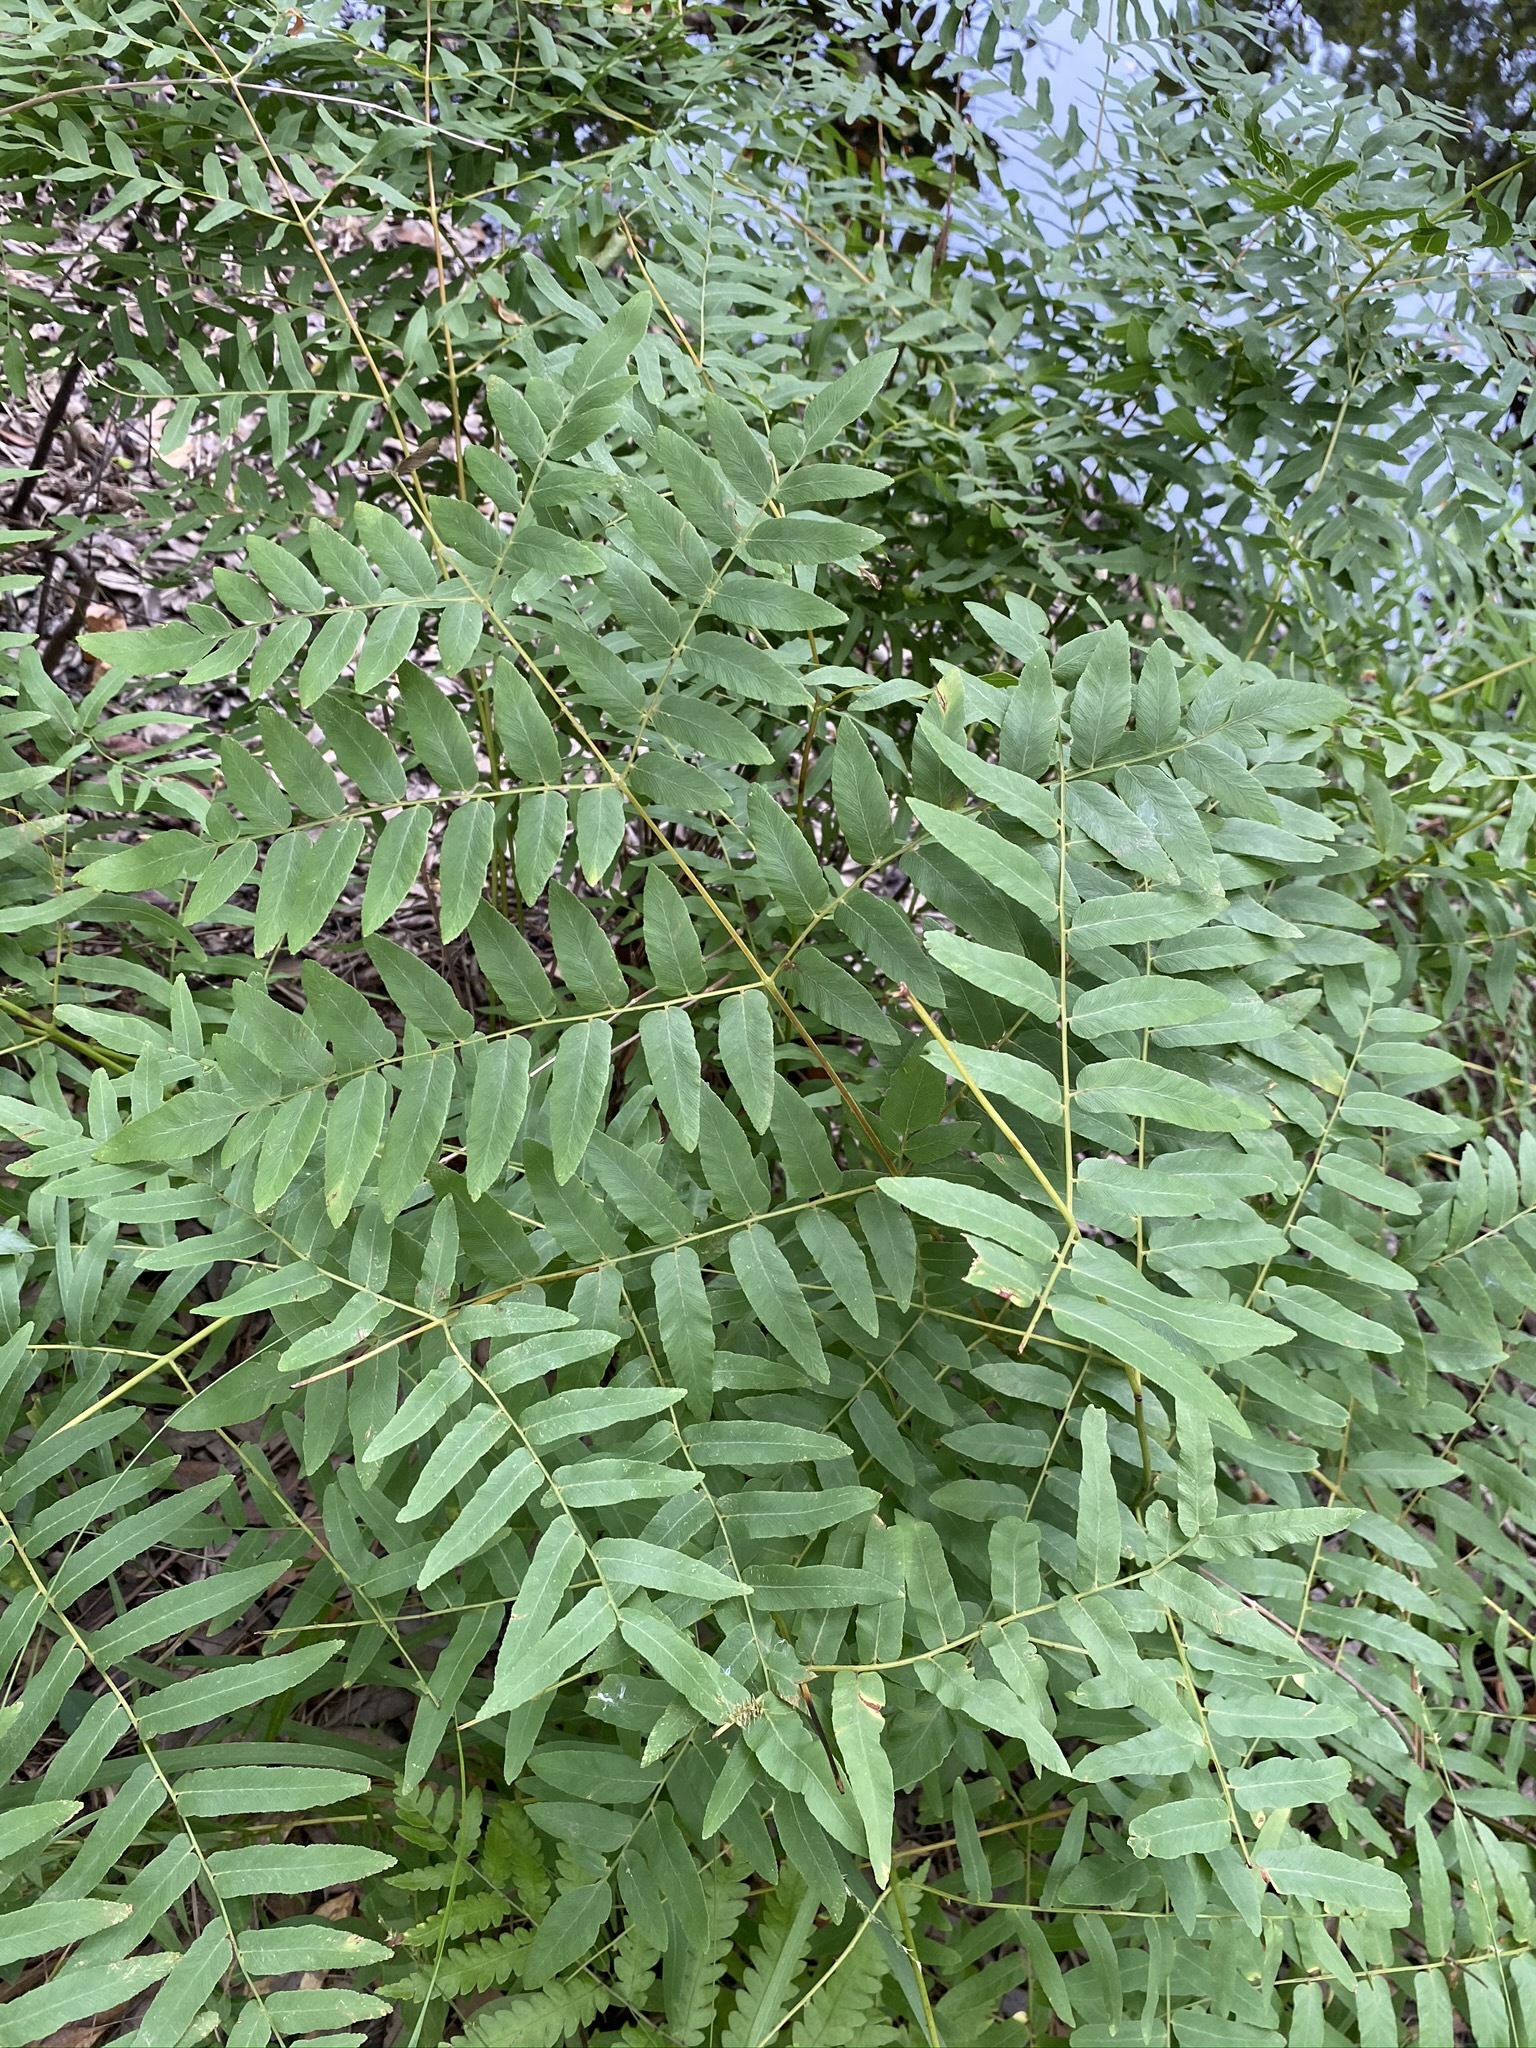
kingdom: Plantae
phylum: Tracheophyta
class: Polypodiopsida
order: Osmundales
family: Osmundaceae
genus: Osmunda
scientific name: Osmunda spectabilis
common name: American royal fern
